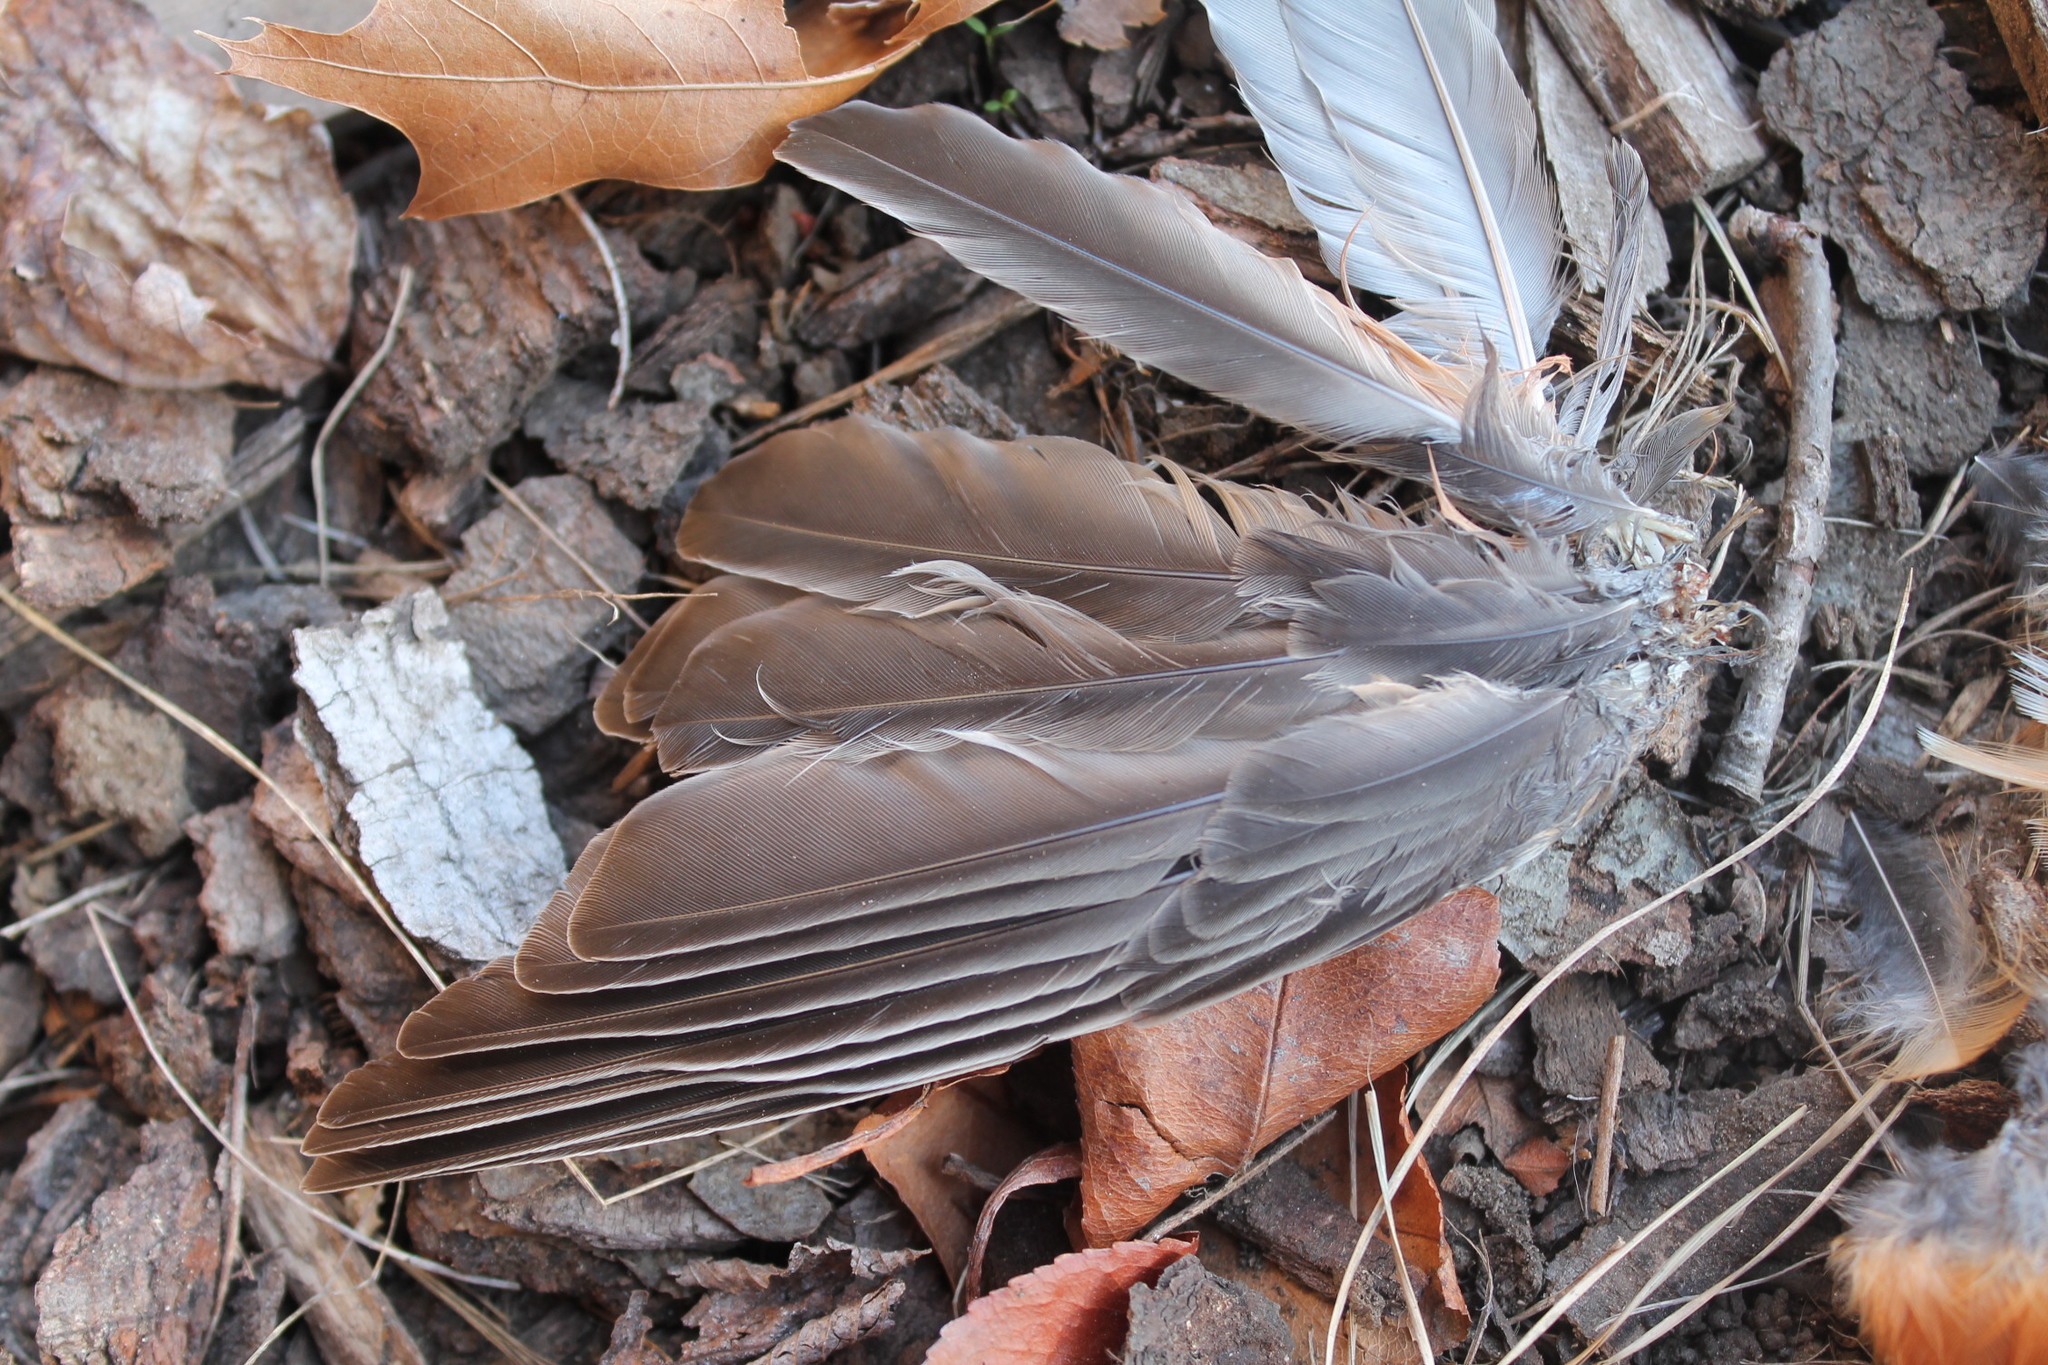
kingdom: Animalia
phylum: Chordata
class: Aves
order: Passeriformes
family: Turdidae
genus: Turdus
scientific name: Turdus migratorius
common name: American robin
